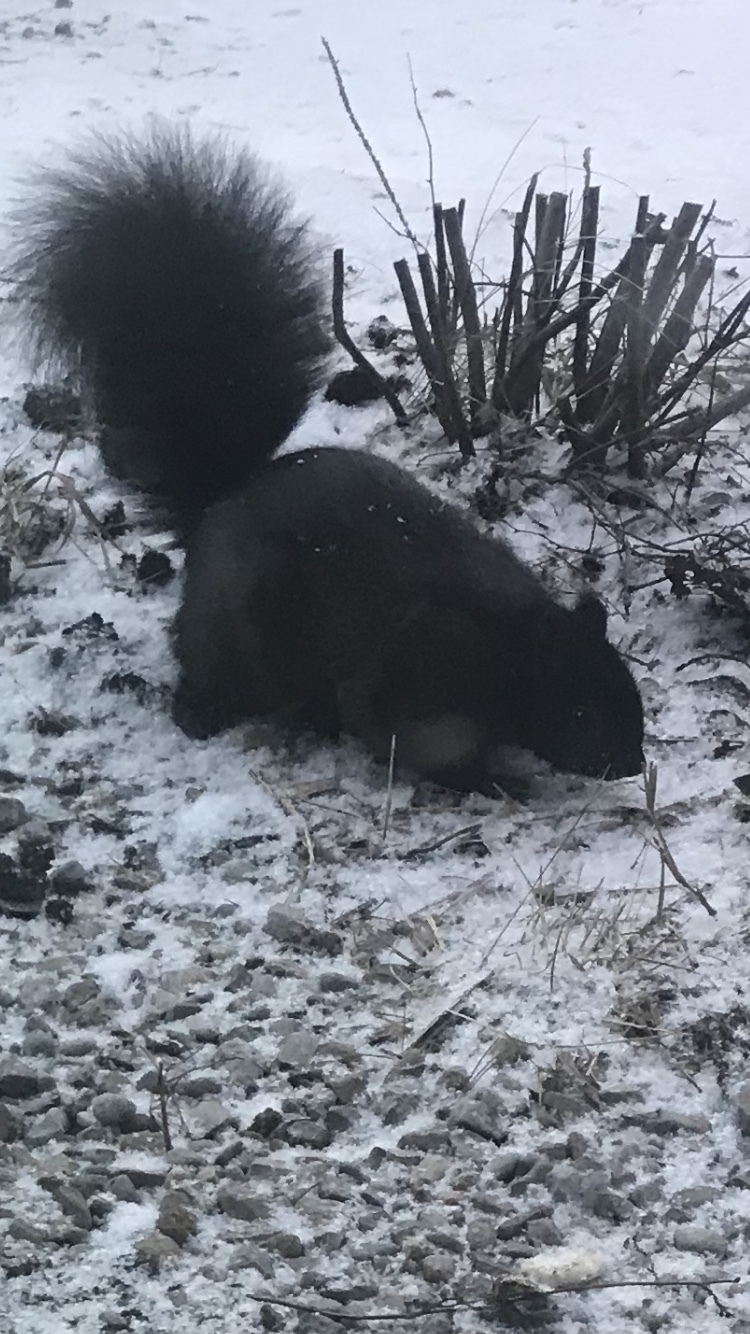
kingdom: Animalia
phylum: Chordata
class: Mammalia
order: Rodentia
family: Sciuridae
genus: Sciurus
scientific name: Sciurus carolinensis
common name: Eastern gray squirrel
